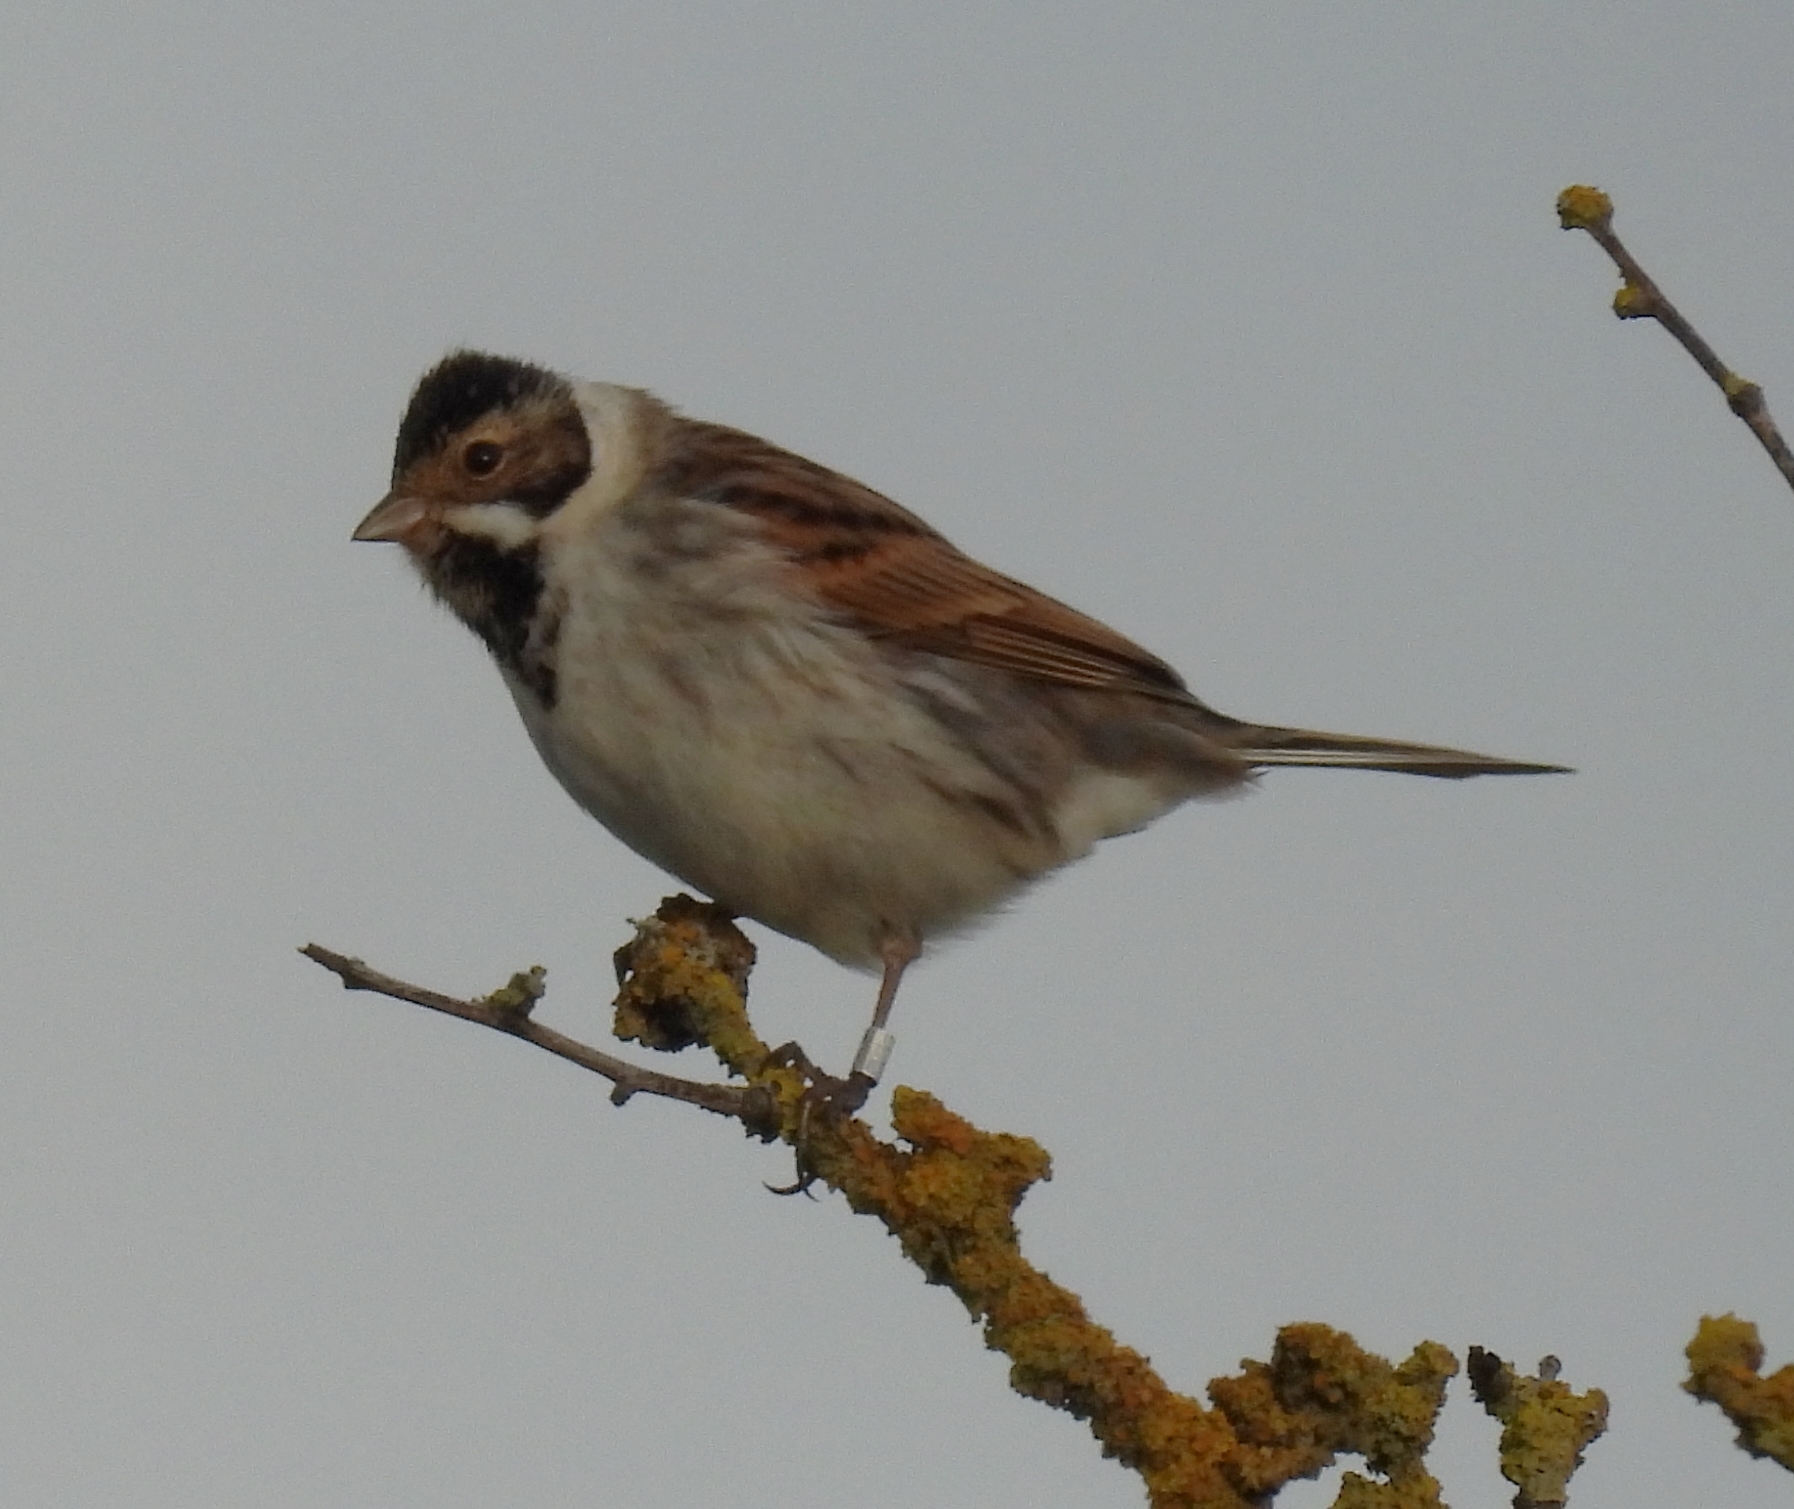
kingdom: Animalia
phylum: Chordata
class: Aves
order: Passeriformes
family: Emberizidae
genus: Emberiza
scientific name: Emberiza schoeniclus
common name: Reed bunting
